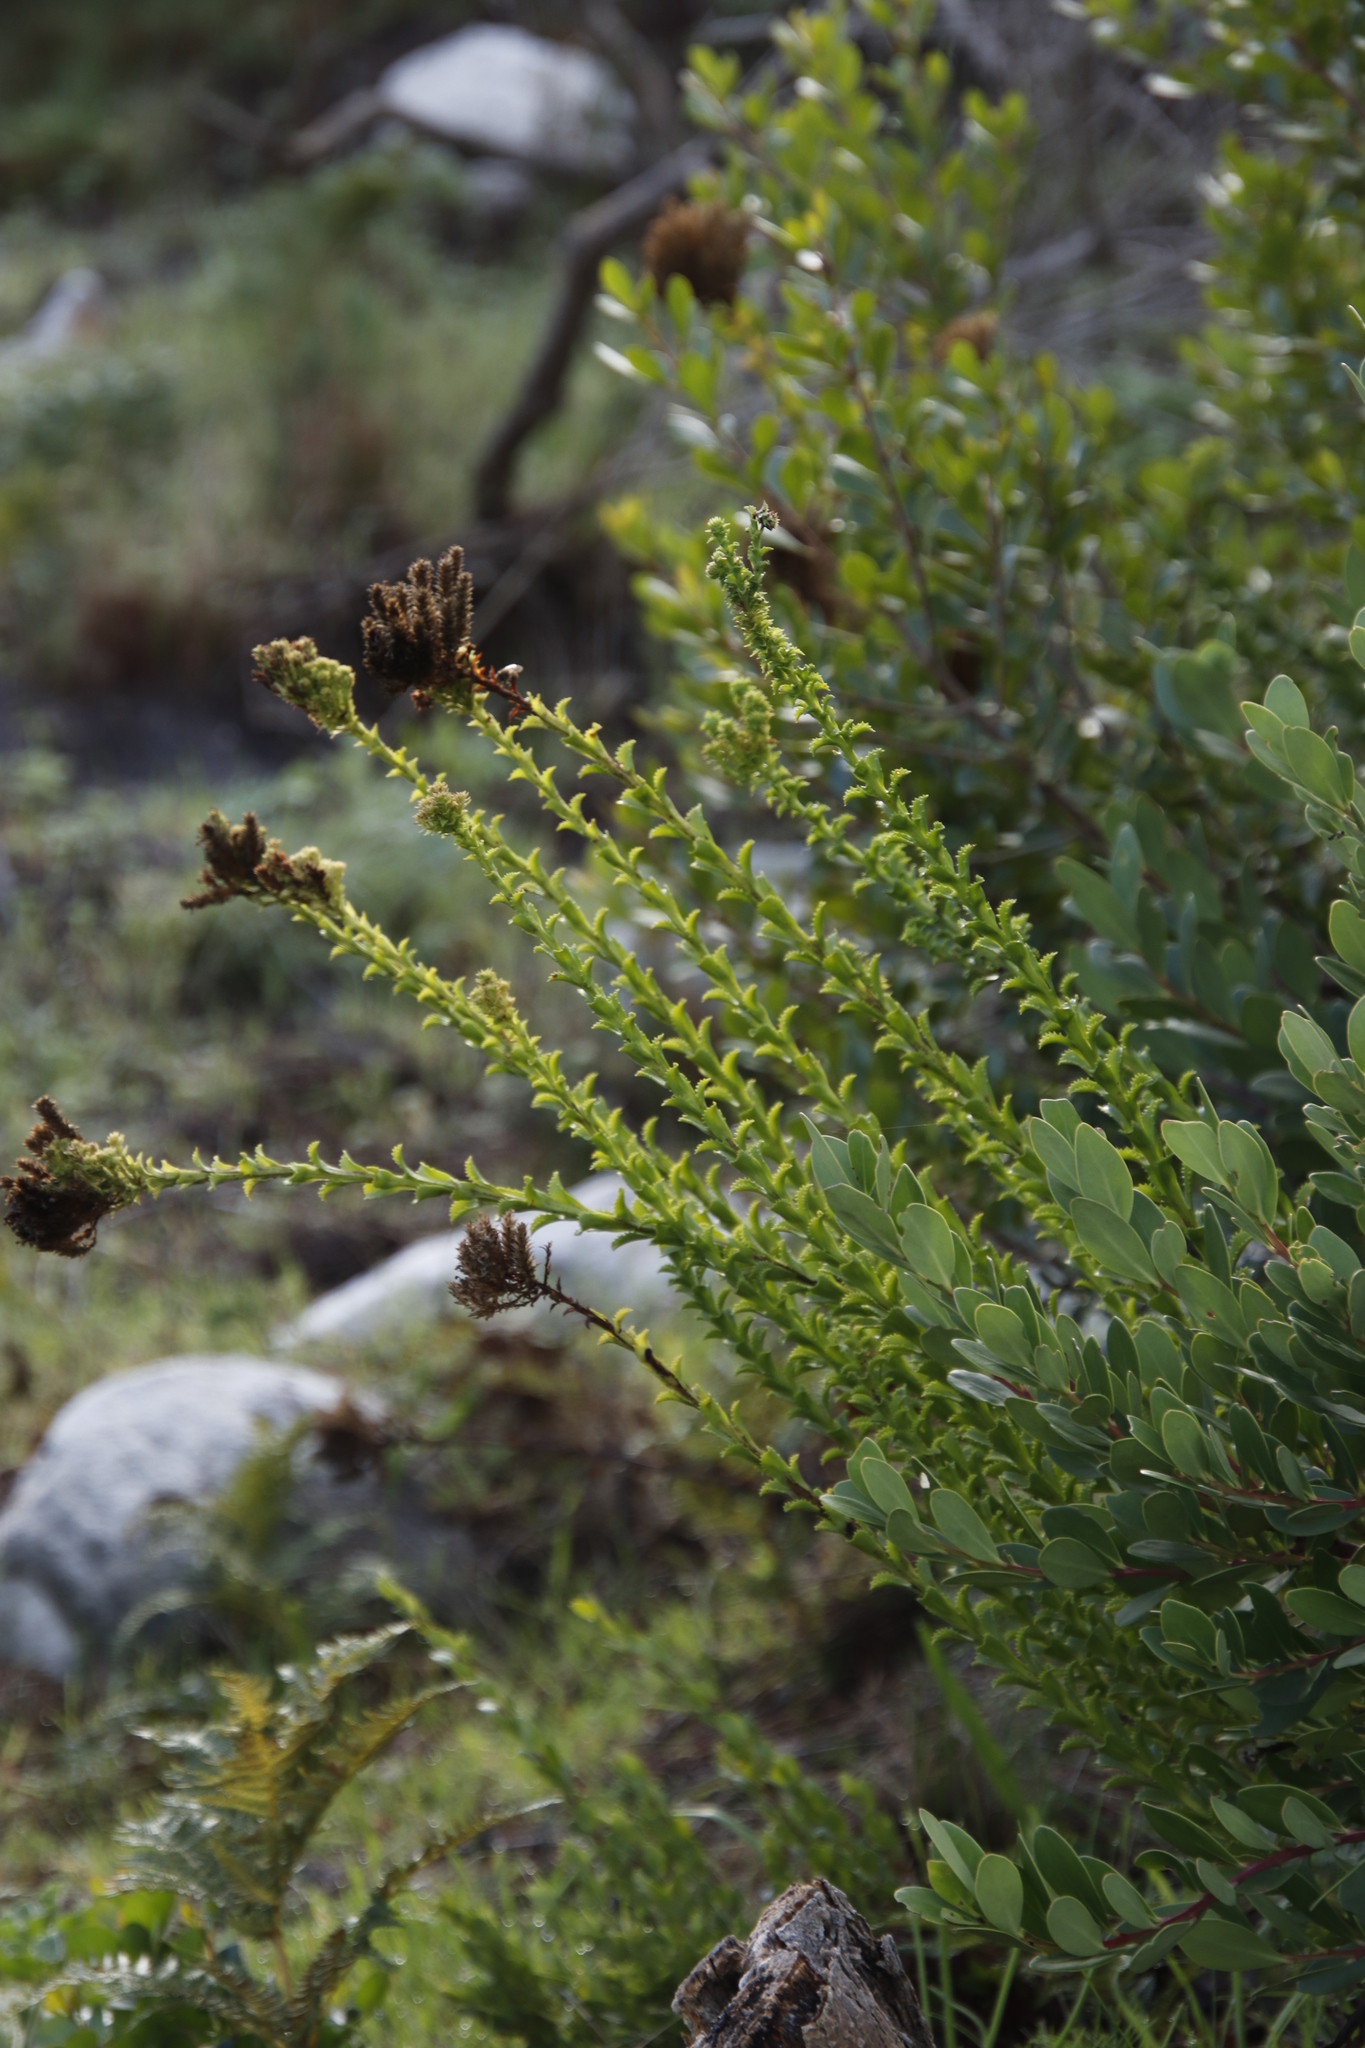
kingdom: Plantae
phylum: Tracheophyta
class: Magnoliopsida
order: Lamiales
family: Scrophulariaceae
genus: Pseudoselago
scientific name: Pseudoselago serrata
